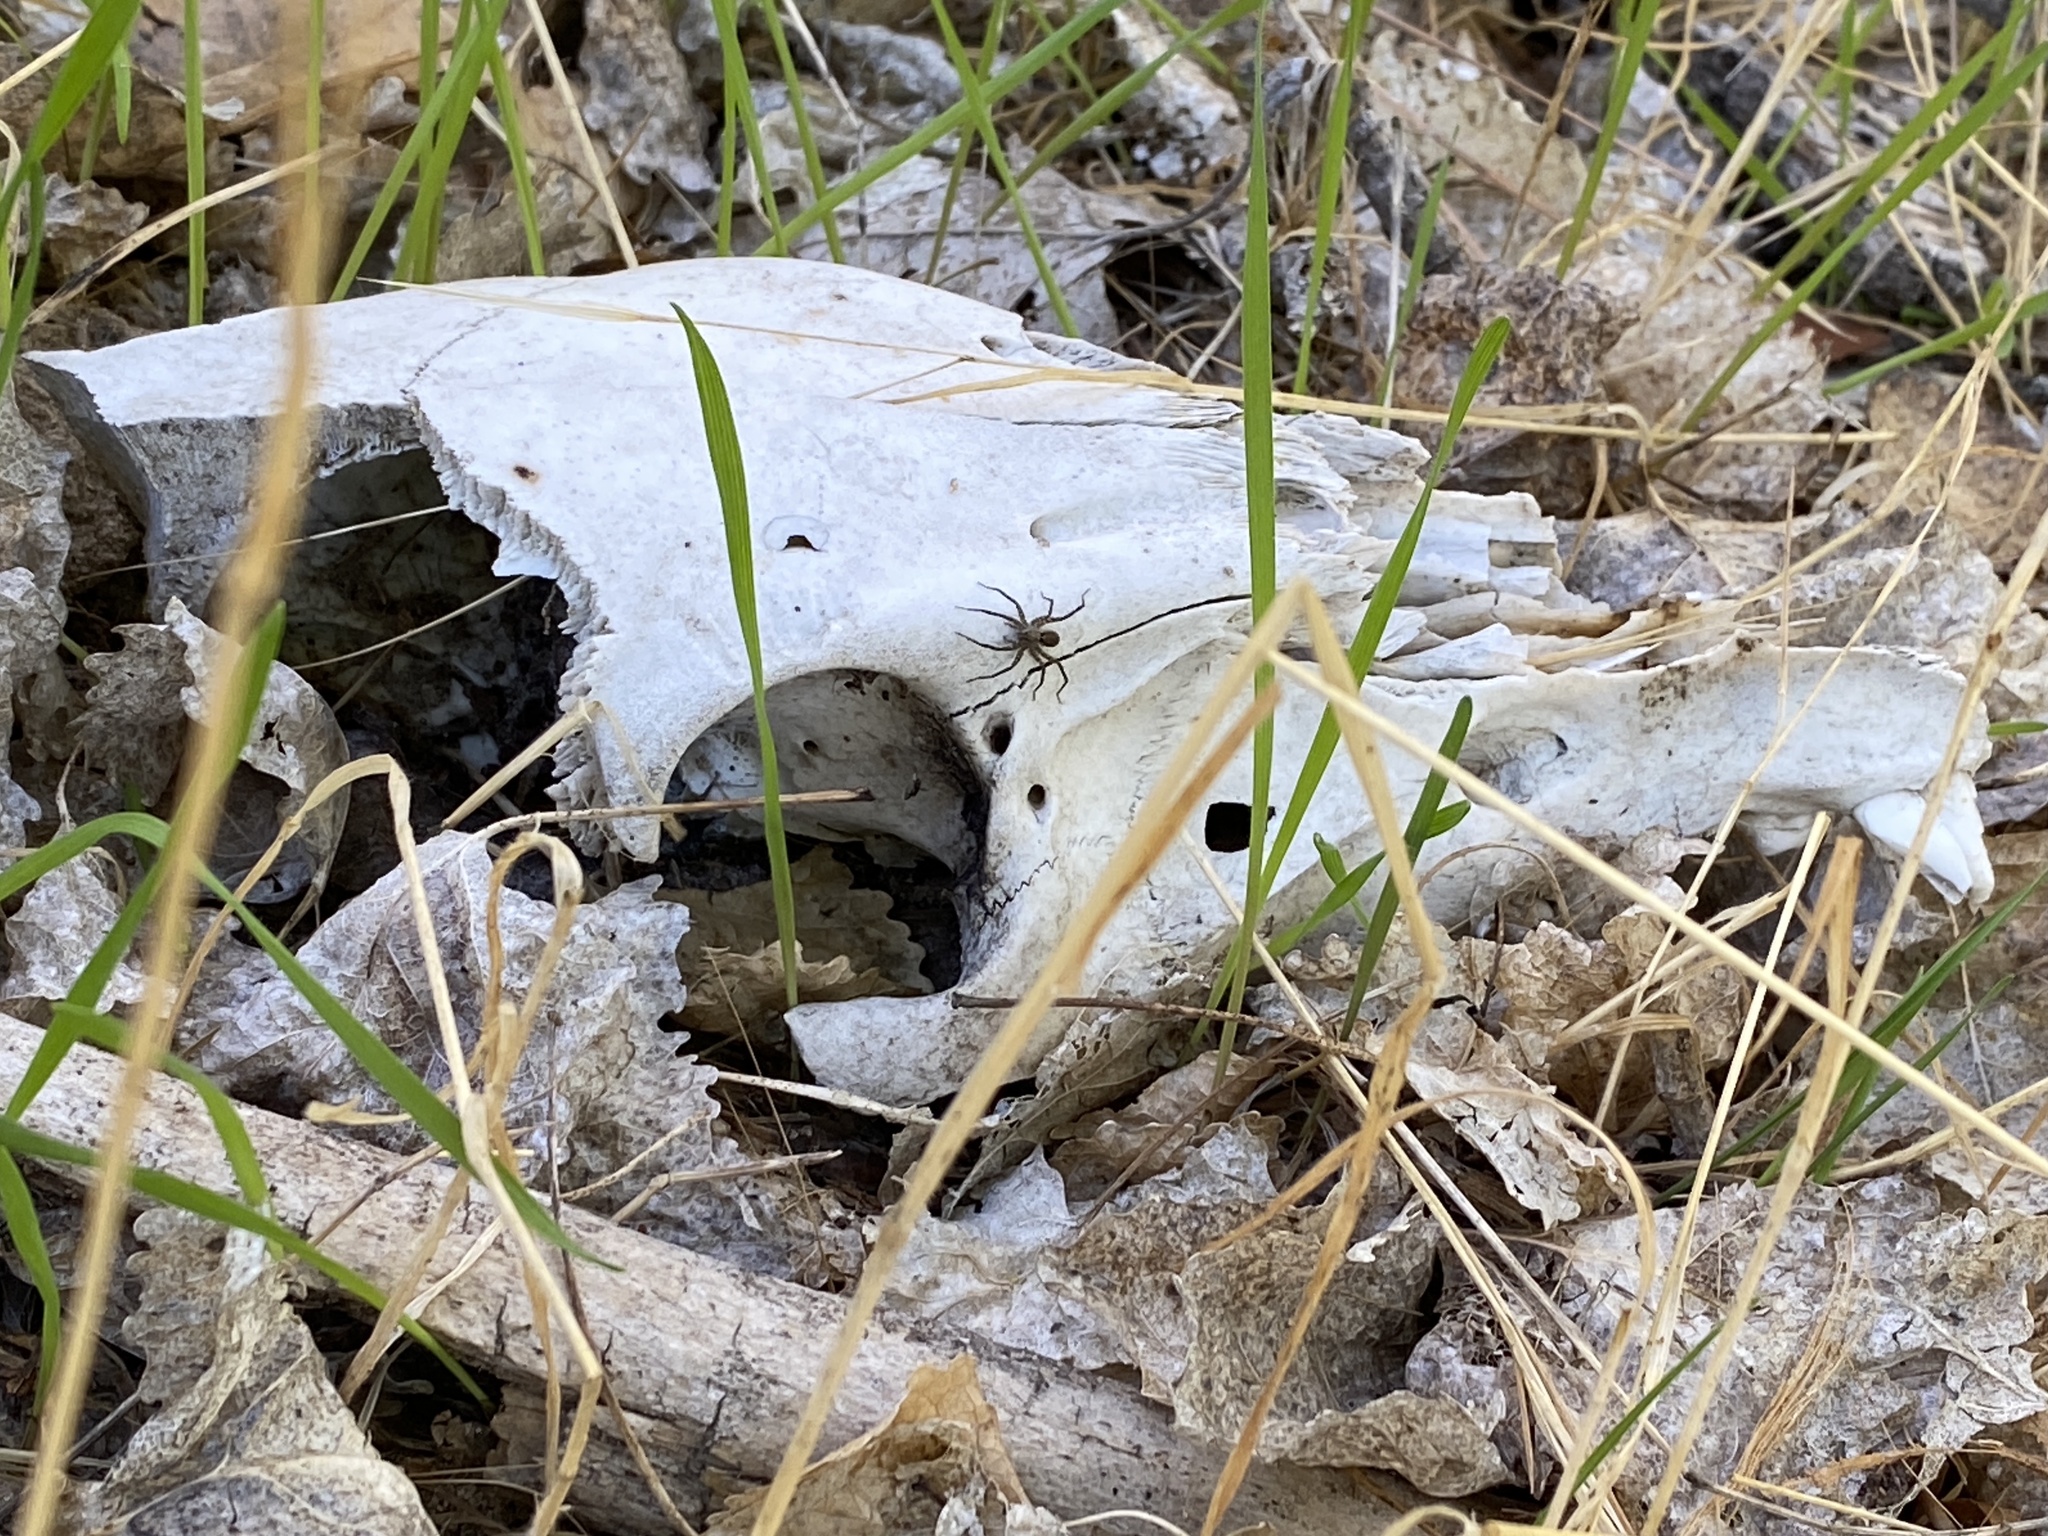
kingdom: Animalia
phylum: Chordata
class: Mammalia
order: Artiodactyla
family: Suidae
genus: Sus
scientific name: Sus scrofa
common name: Wild boar
